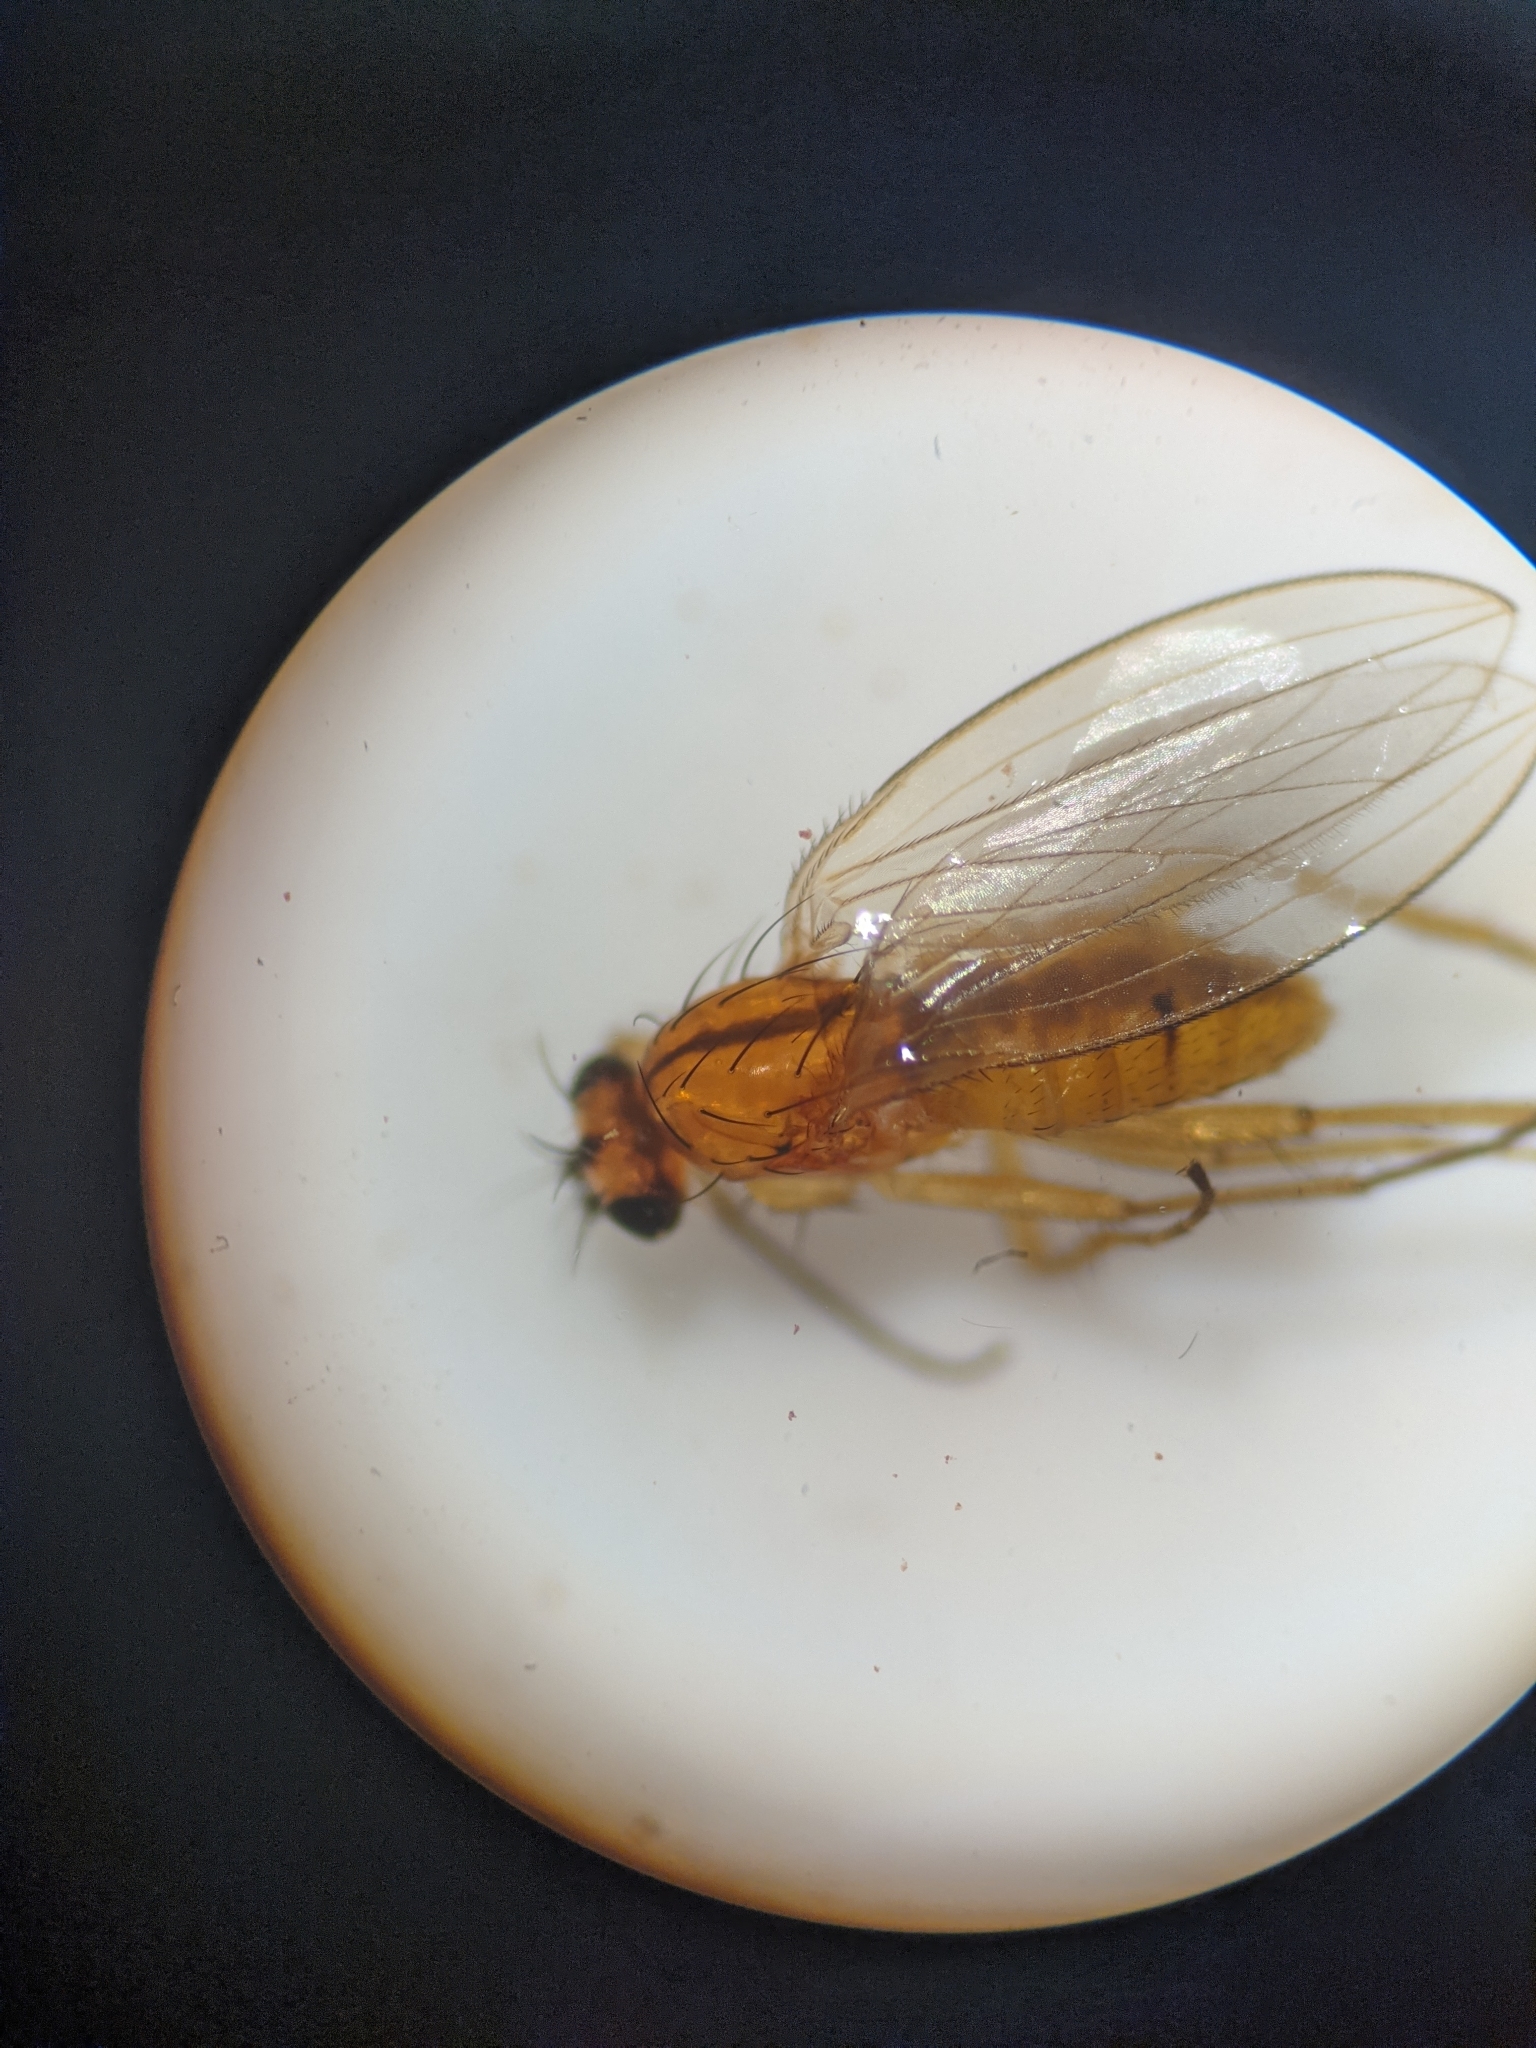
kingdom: Animalia
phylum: Arthropoda
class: Insecta
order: Diptera
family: Lonchopteridae
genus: Lonchoptera
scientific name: Lonchoptera bifurcata
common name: Spear-winged fly
